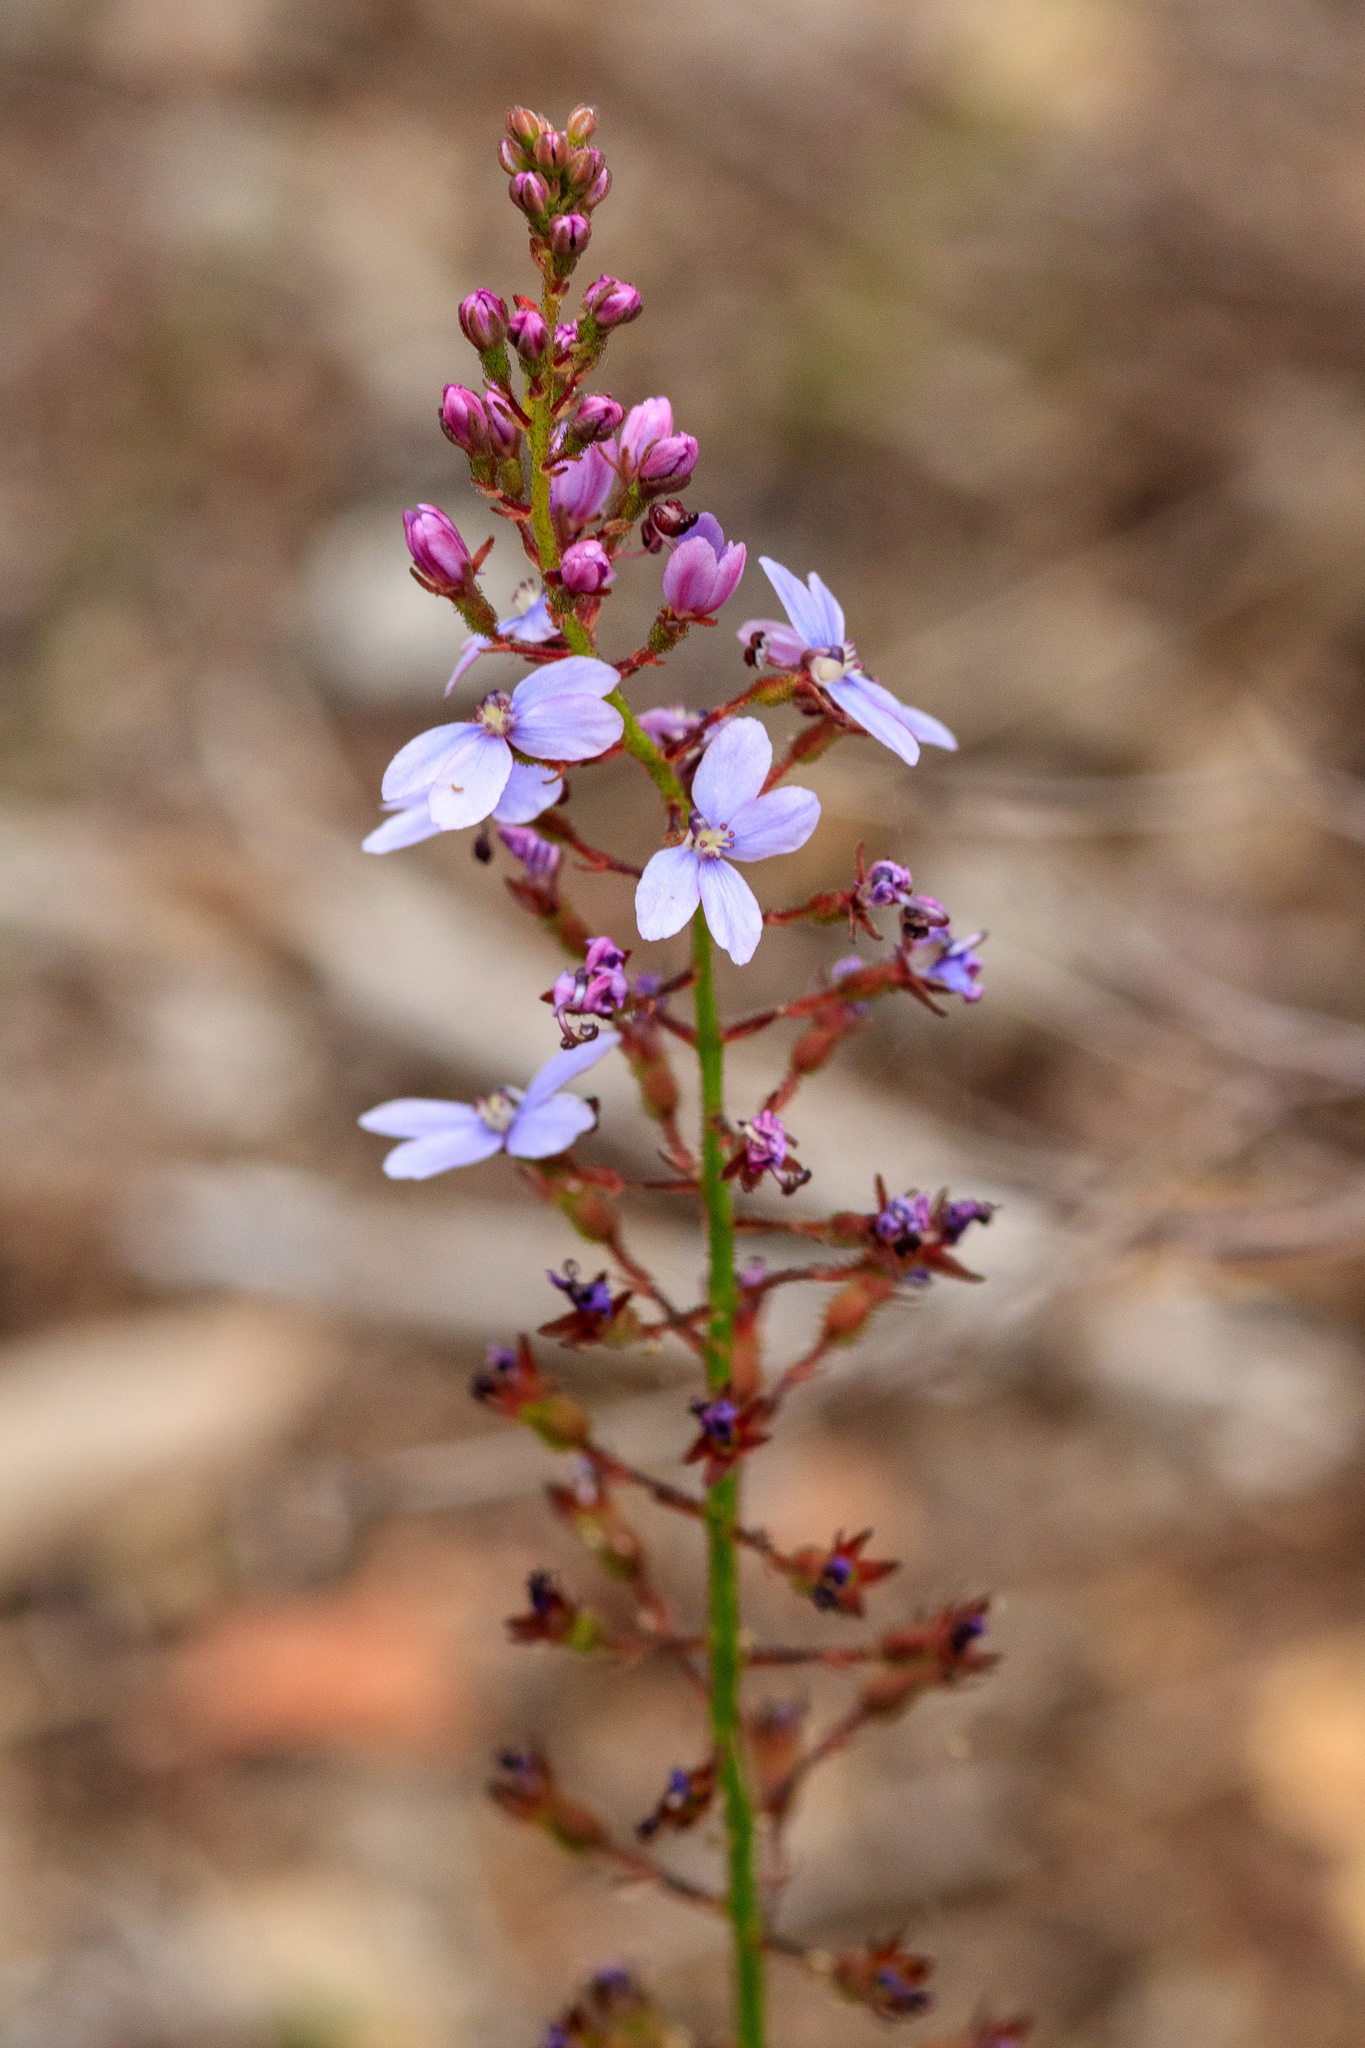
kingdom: Plantae
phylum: Tracheophyta
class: Magnoliopsida
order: Asterales
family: Stylidiaceae
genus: Stylidium
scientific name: Stylidium amoenum
